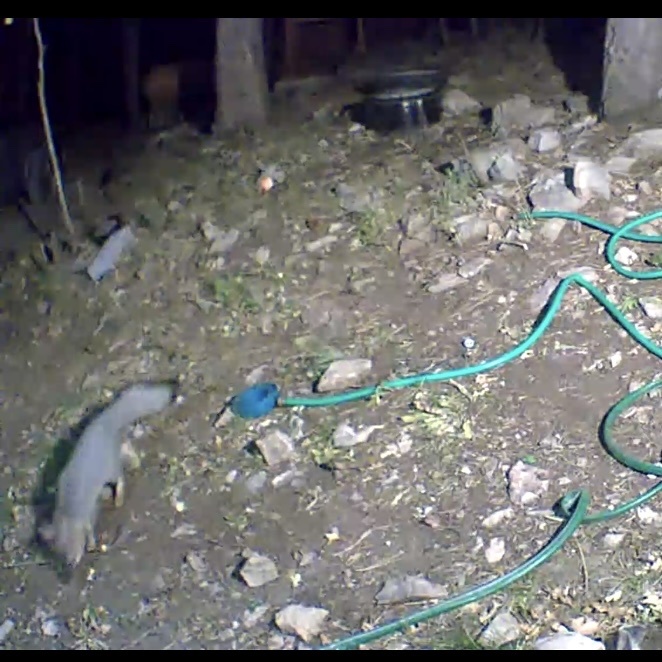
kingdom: Animalia
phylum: Chordata
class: Mammalia
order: Carnivora
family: Canidae
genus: Urocyon
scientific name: Urocyon cinereoargenteus
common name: Gray fox
